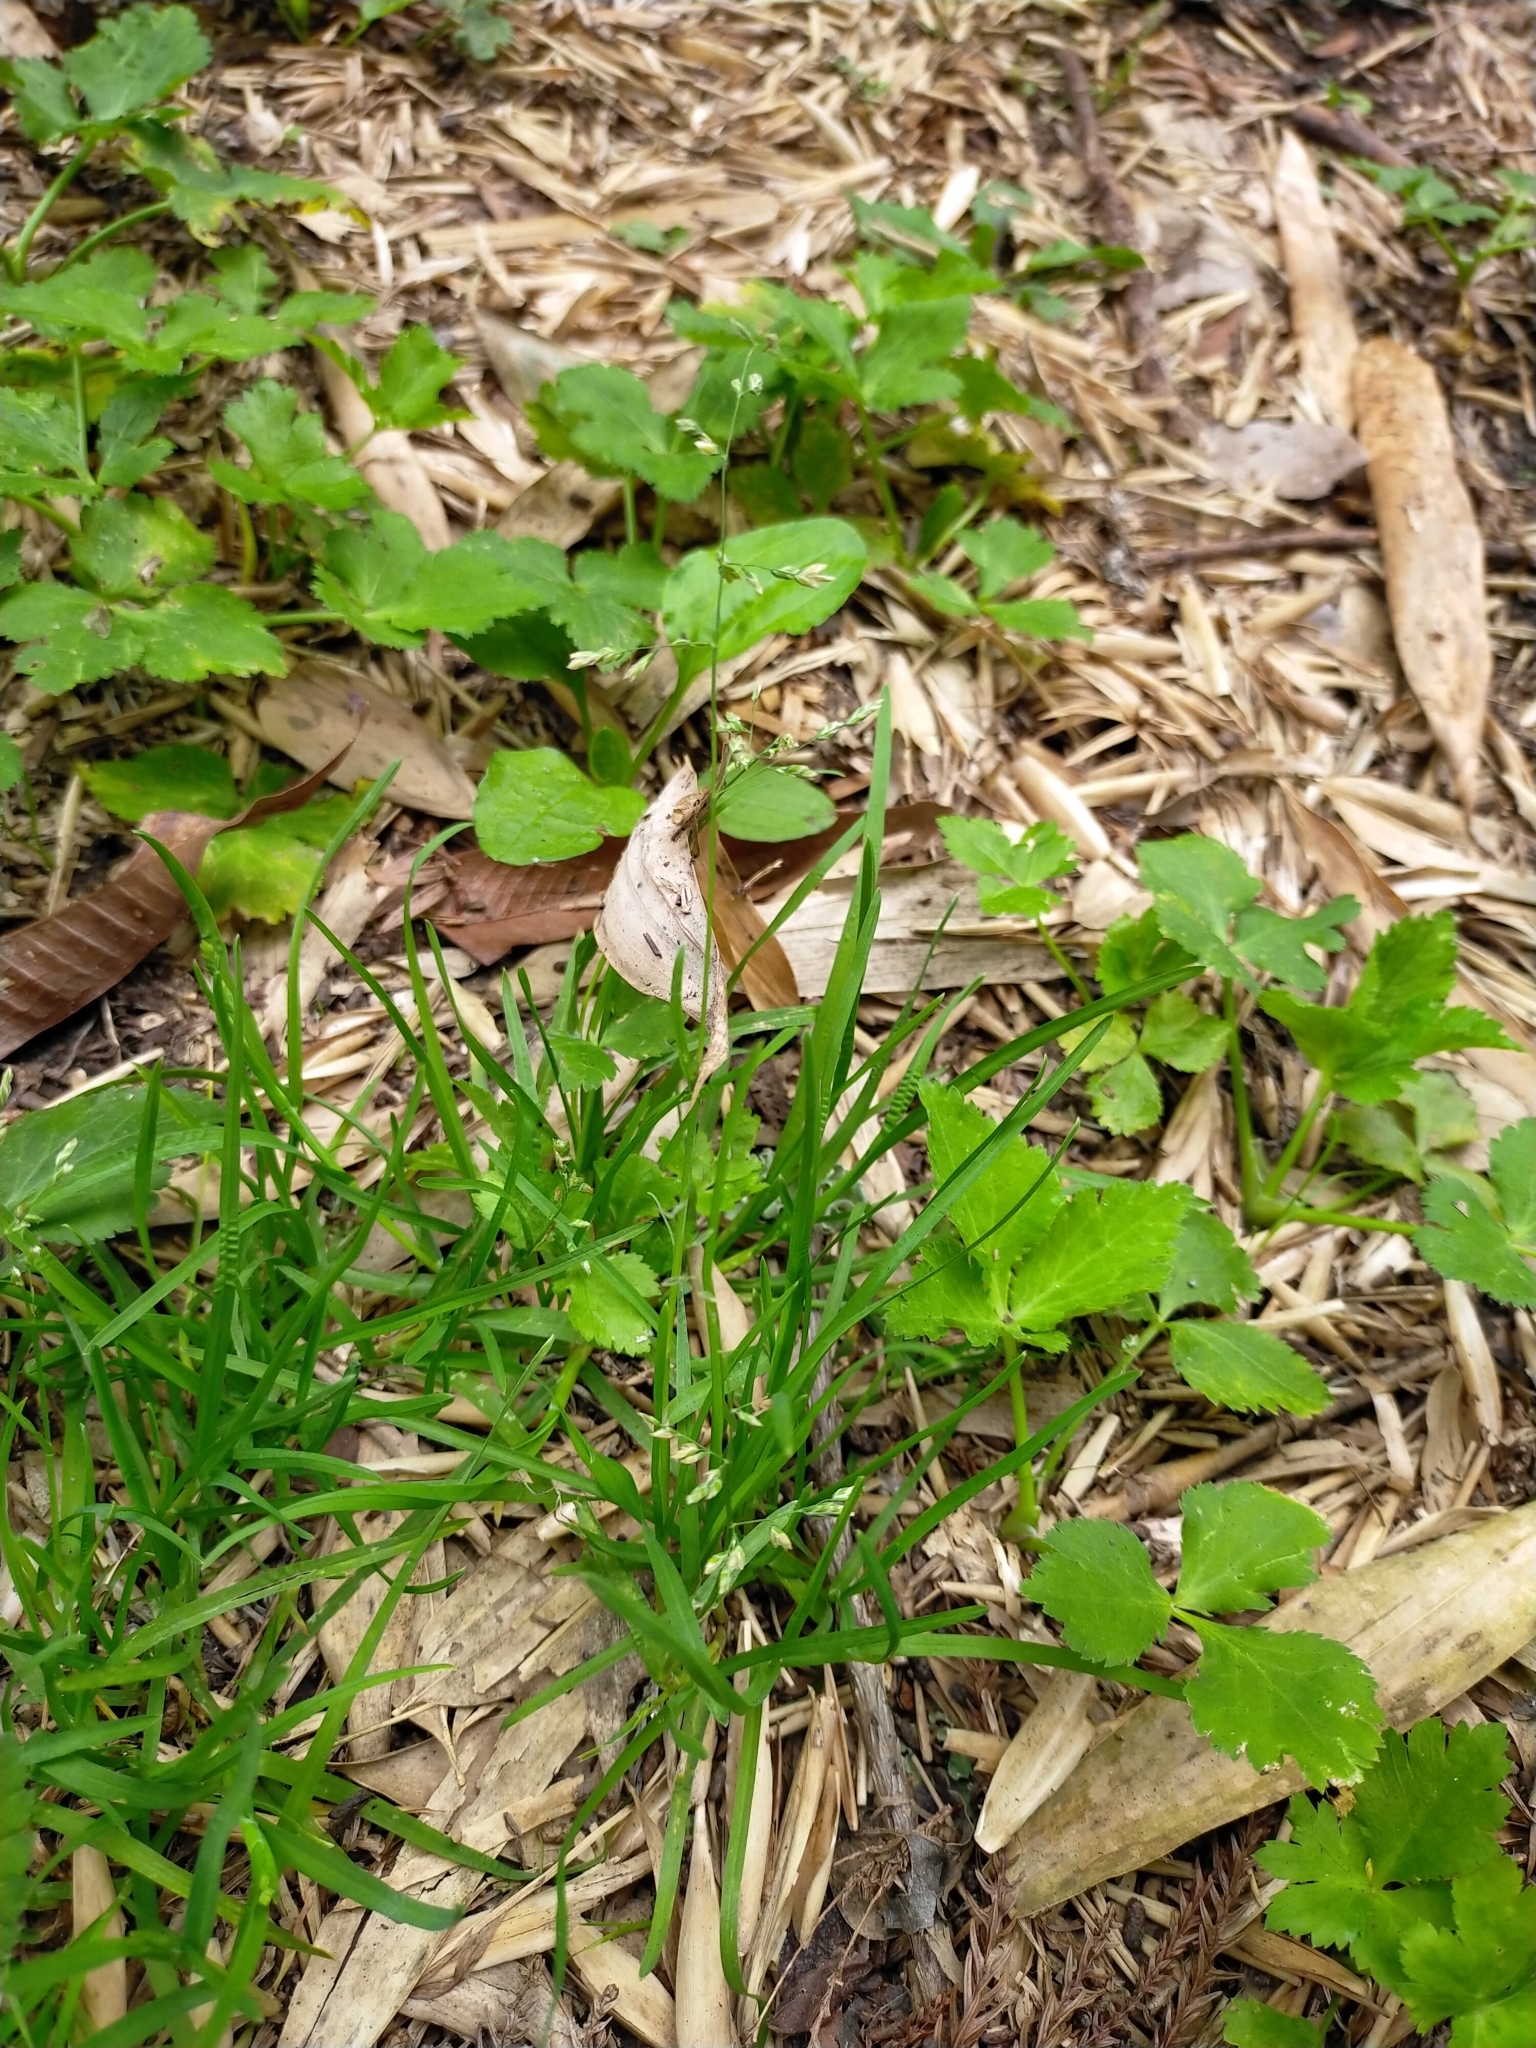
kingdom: Plantae
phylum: Tracheophyta
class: Liliopsida
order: Poales
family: Poaceae
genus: Poa
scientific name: Poa annua
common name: Annual bluegrass
